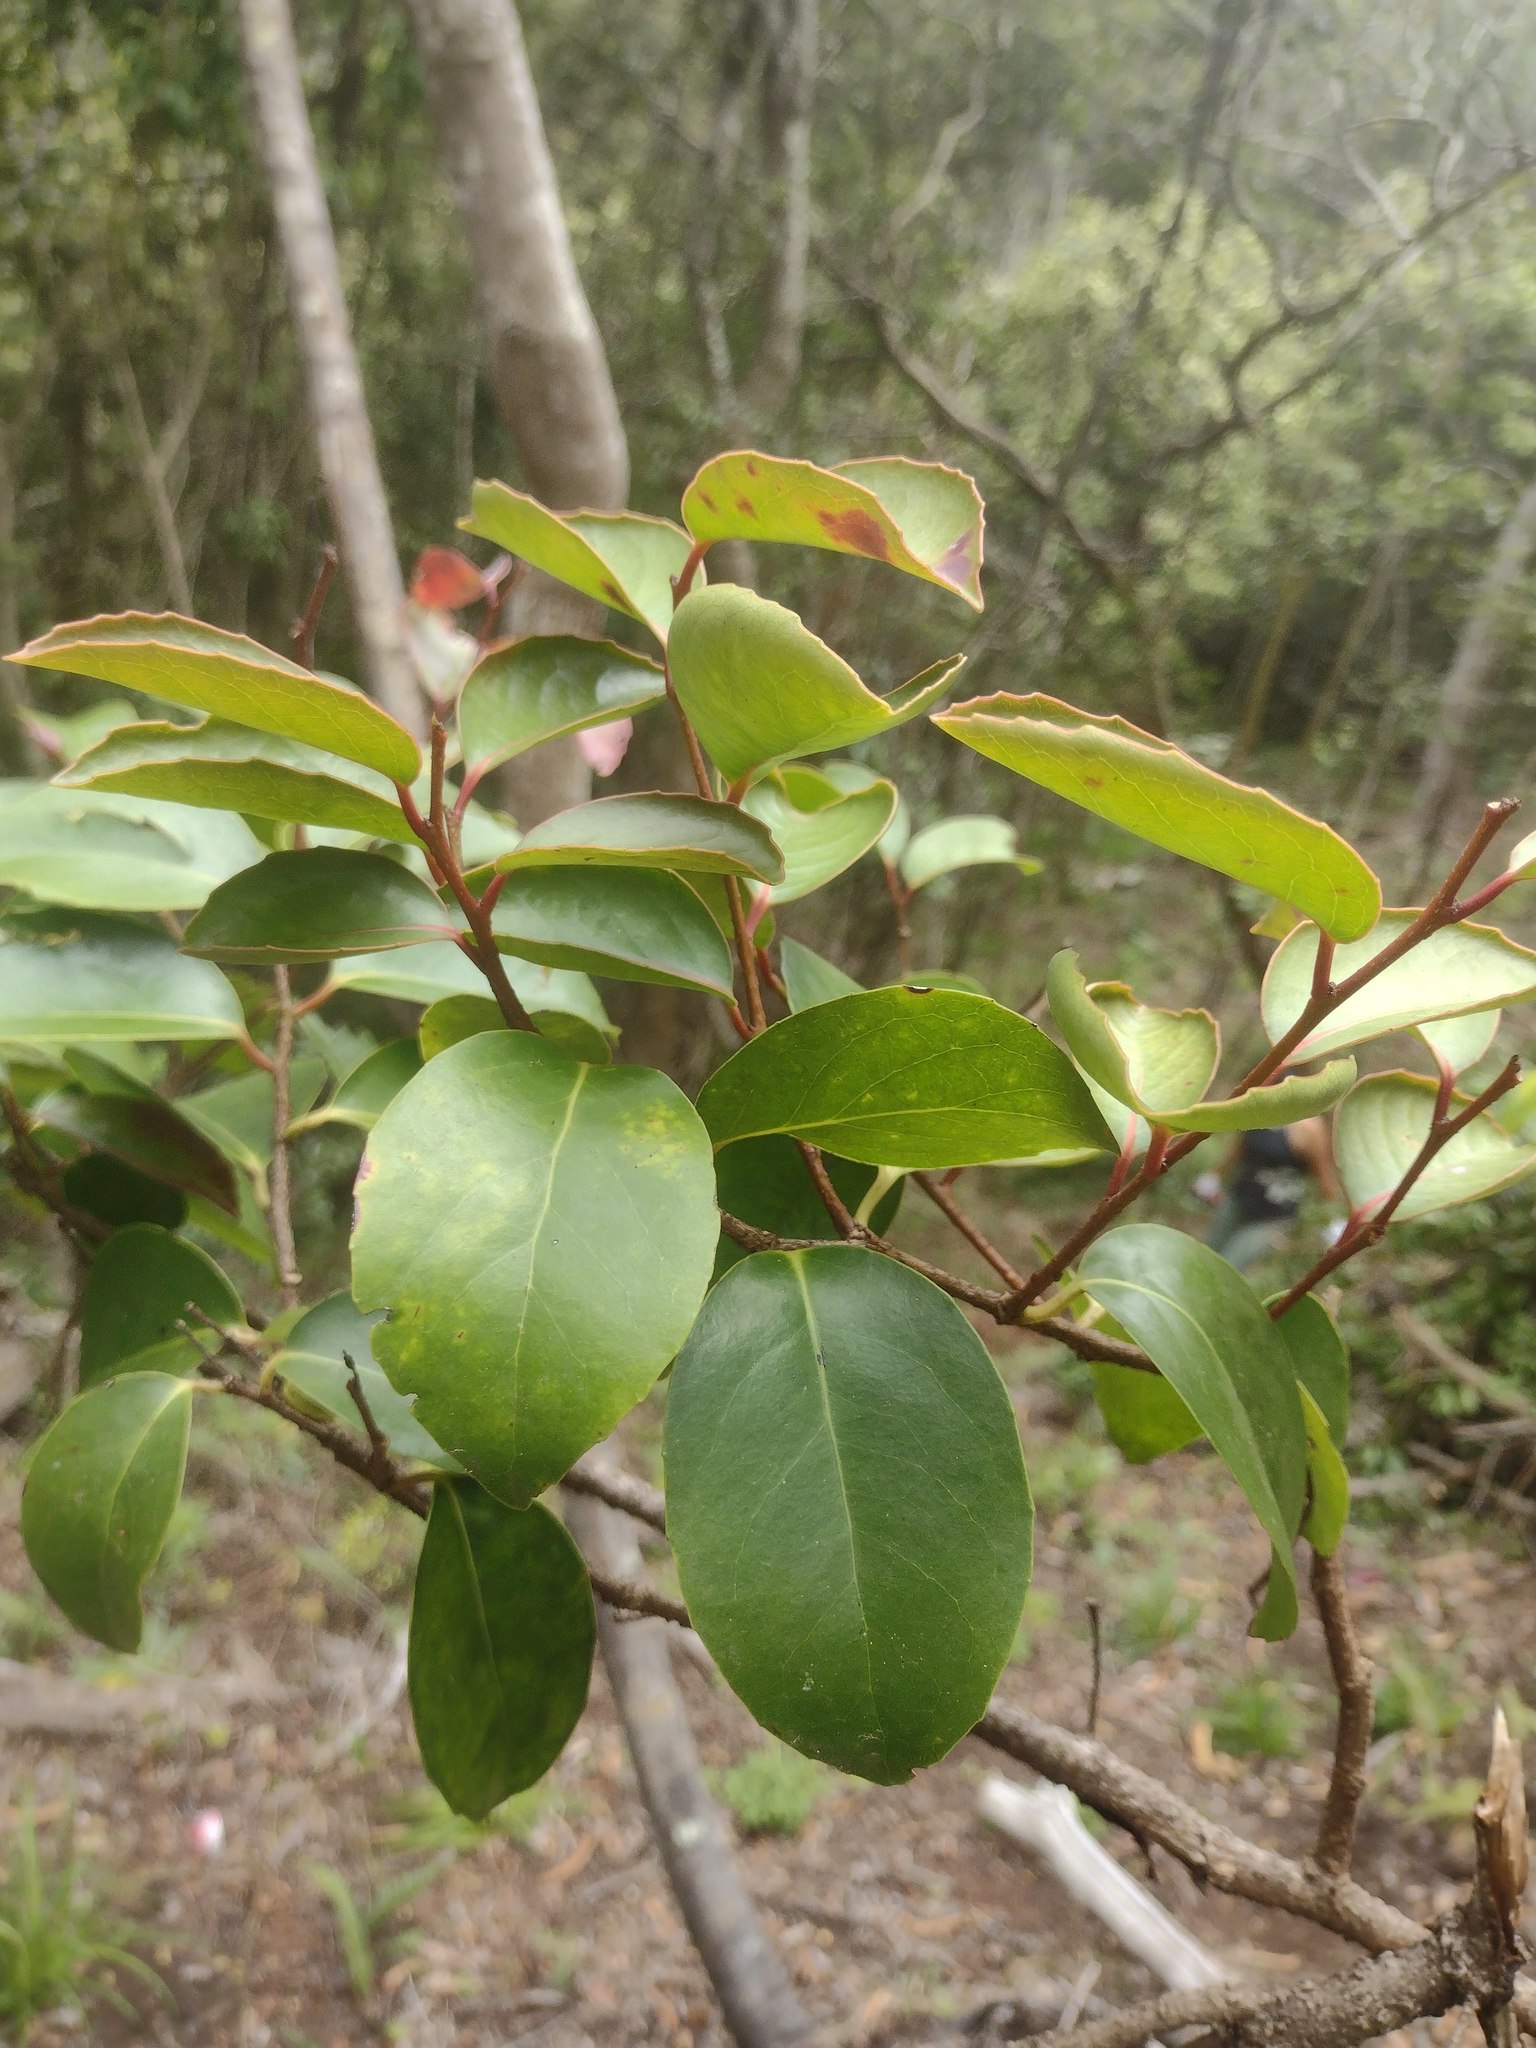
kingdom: Plantae
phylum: Tracheophyta
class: Magnoliopsida
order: Malpighiales
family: Salicaceae
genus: Xylosma
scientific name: Xylosma hawaiense
